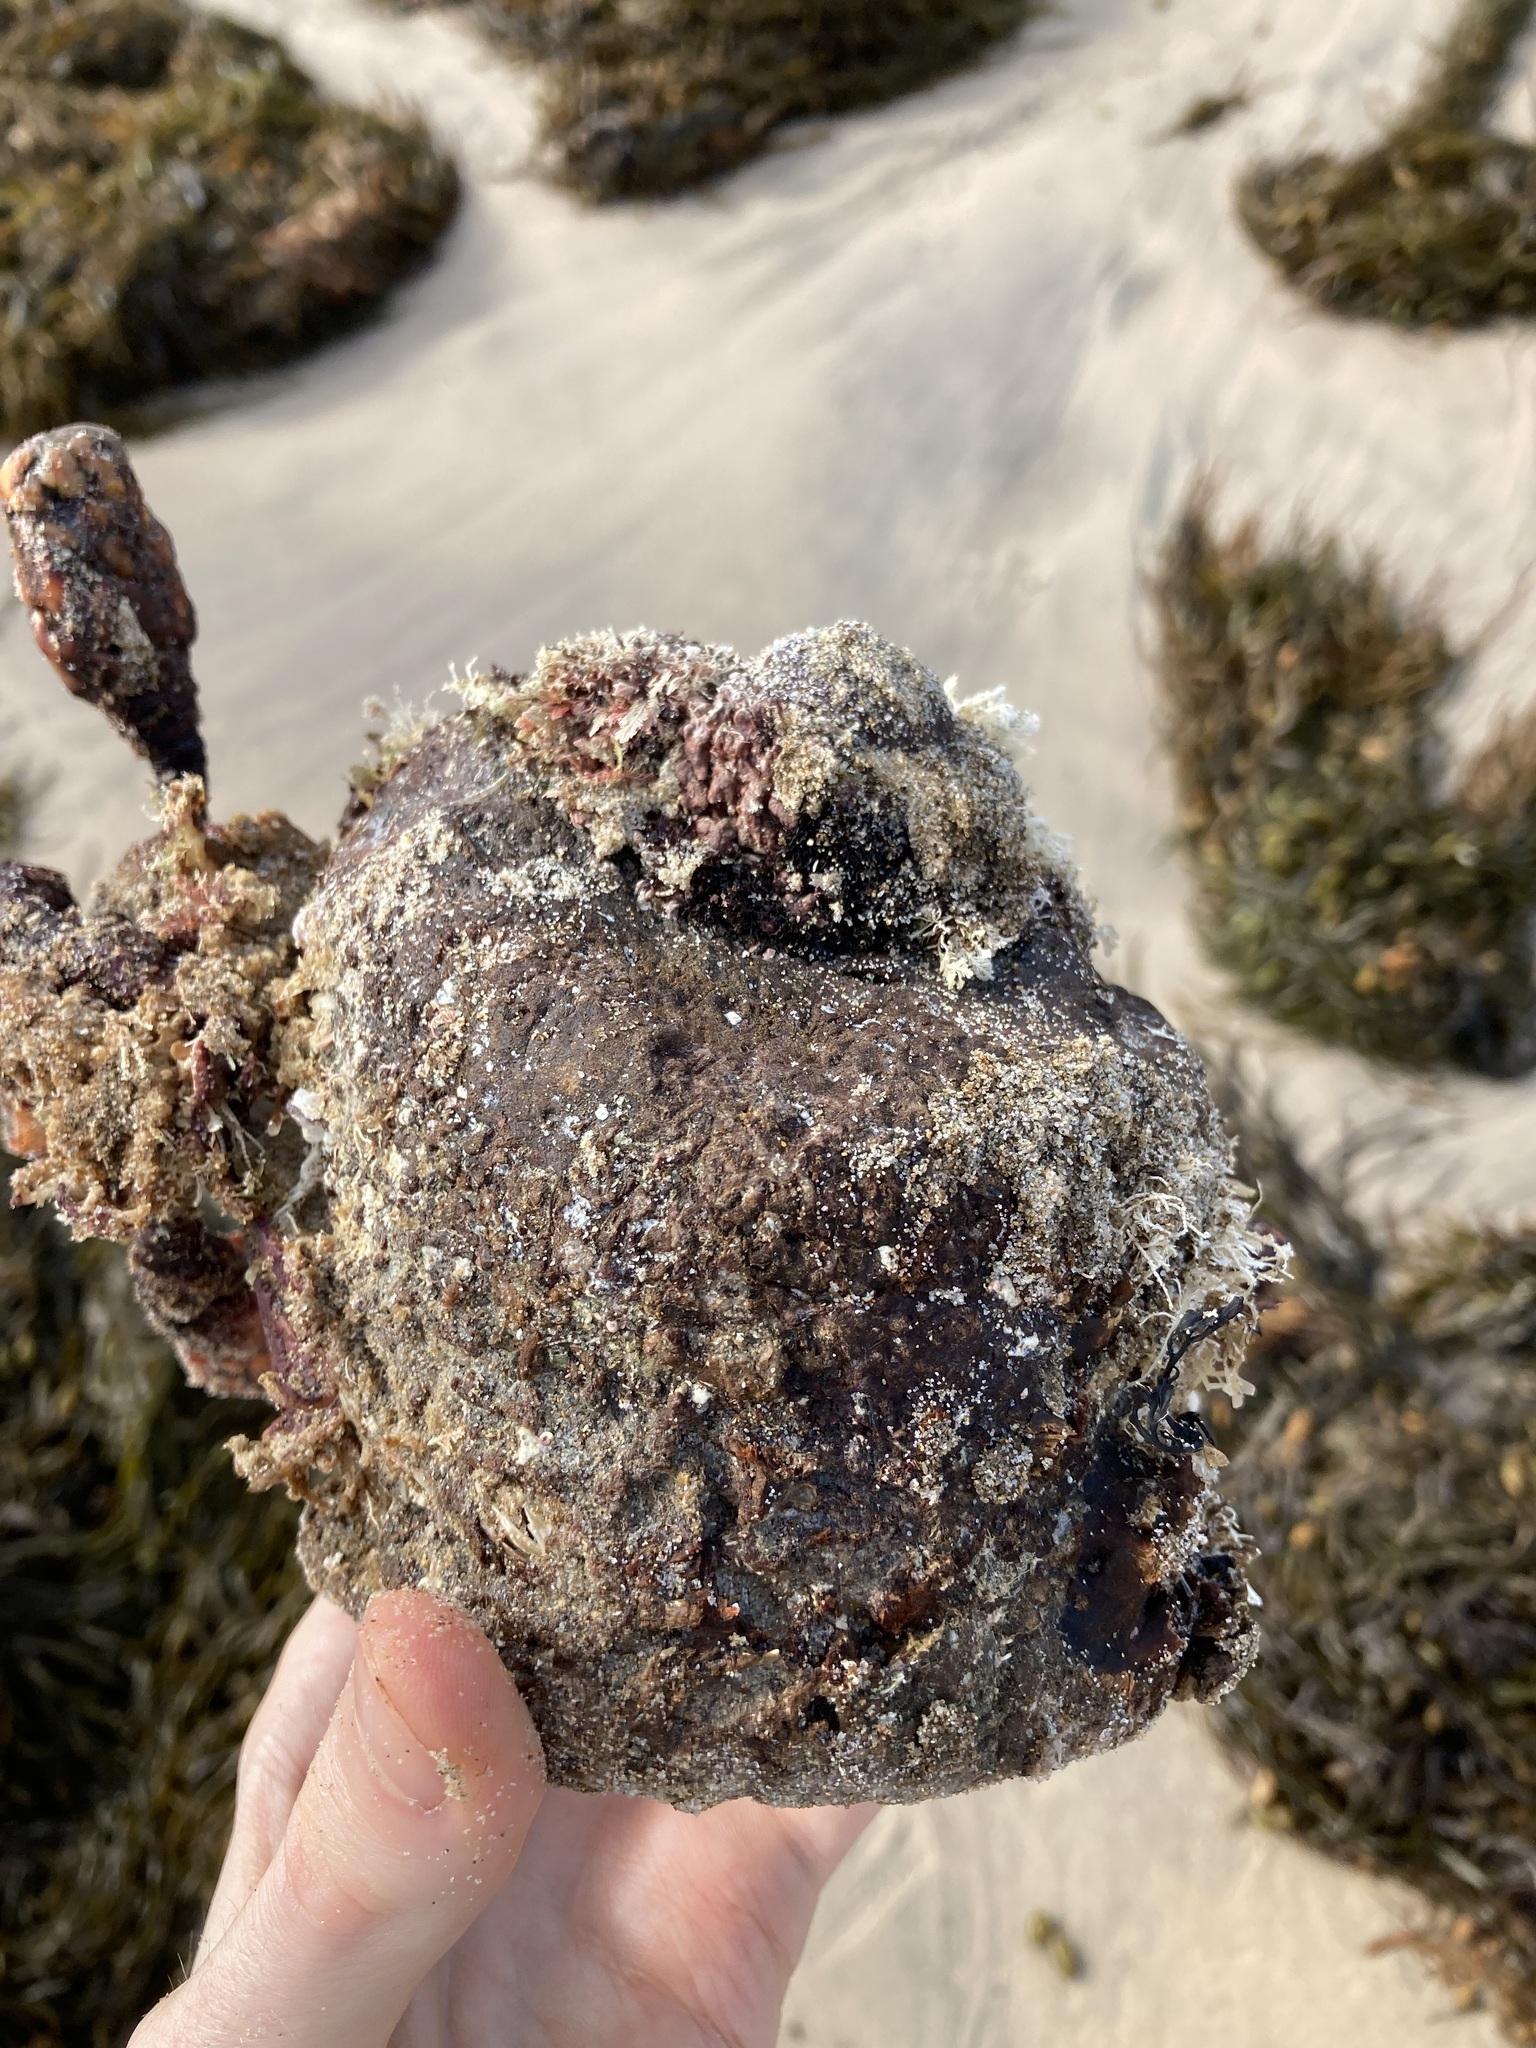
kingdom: Animalia
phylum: Chordata
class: Ascidiacea
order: Stolidobranchia
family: Pyuridae
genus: Pyura
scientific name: Pyura praeputialis
